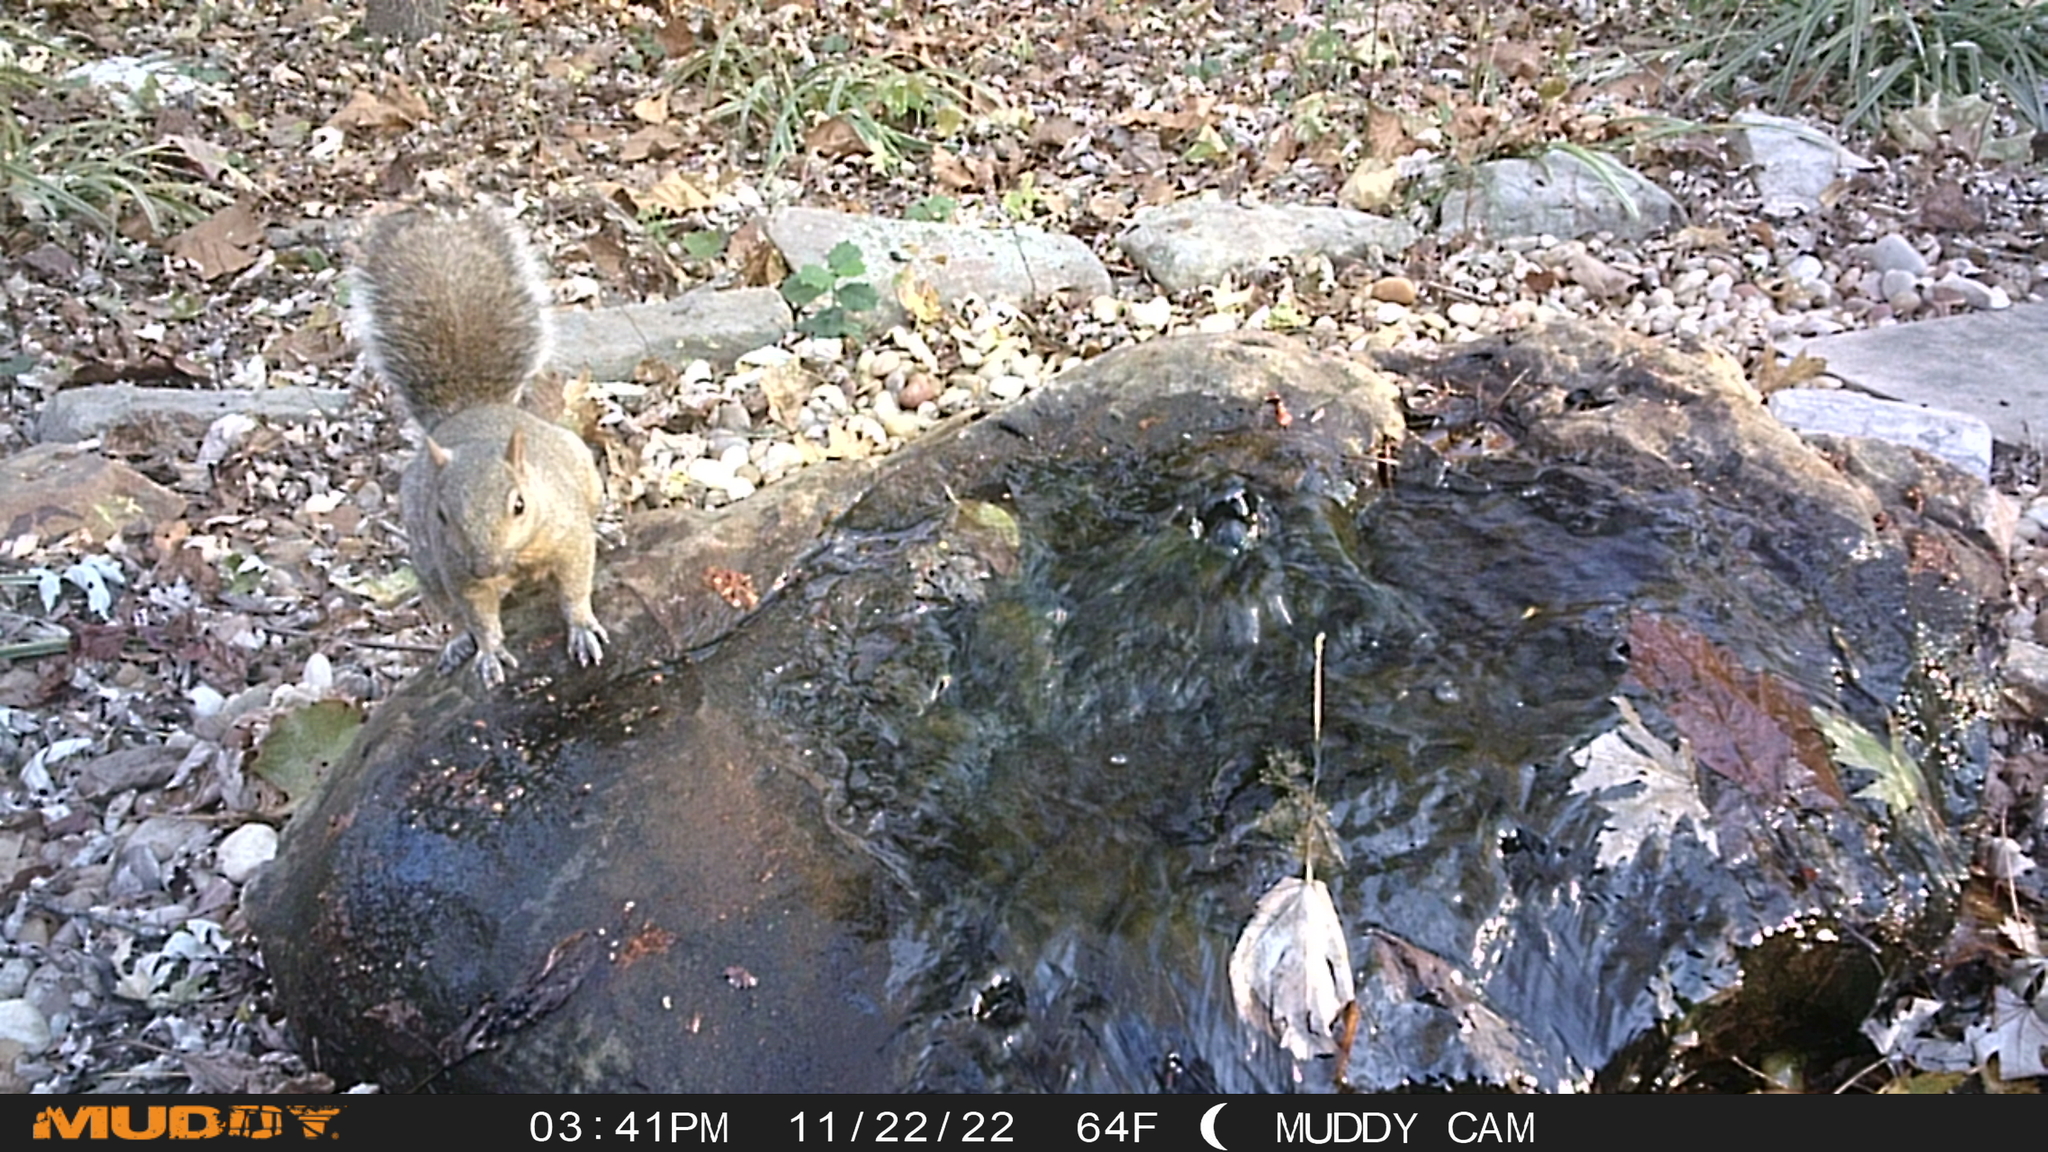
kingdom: Animalia
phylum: Chordata
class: Mammalia
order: Rodentia
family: Sciuridae
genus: Sciurus
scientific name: Sciurus carolinensis
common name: Eastern gray squirrel
